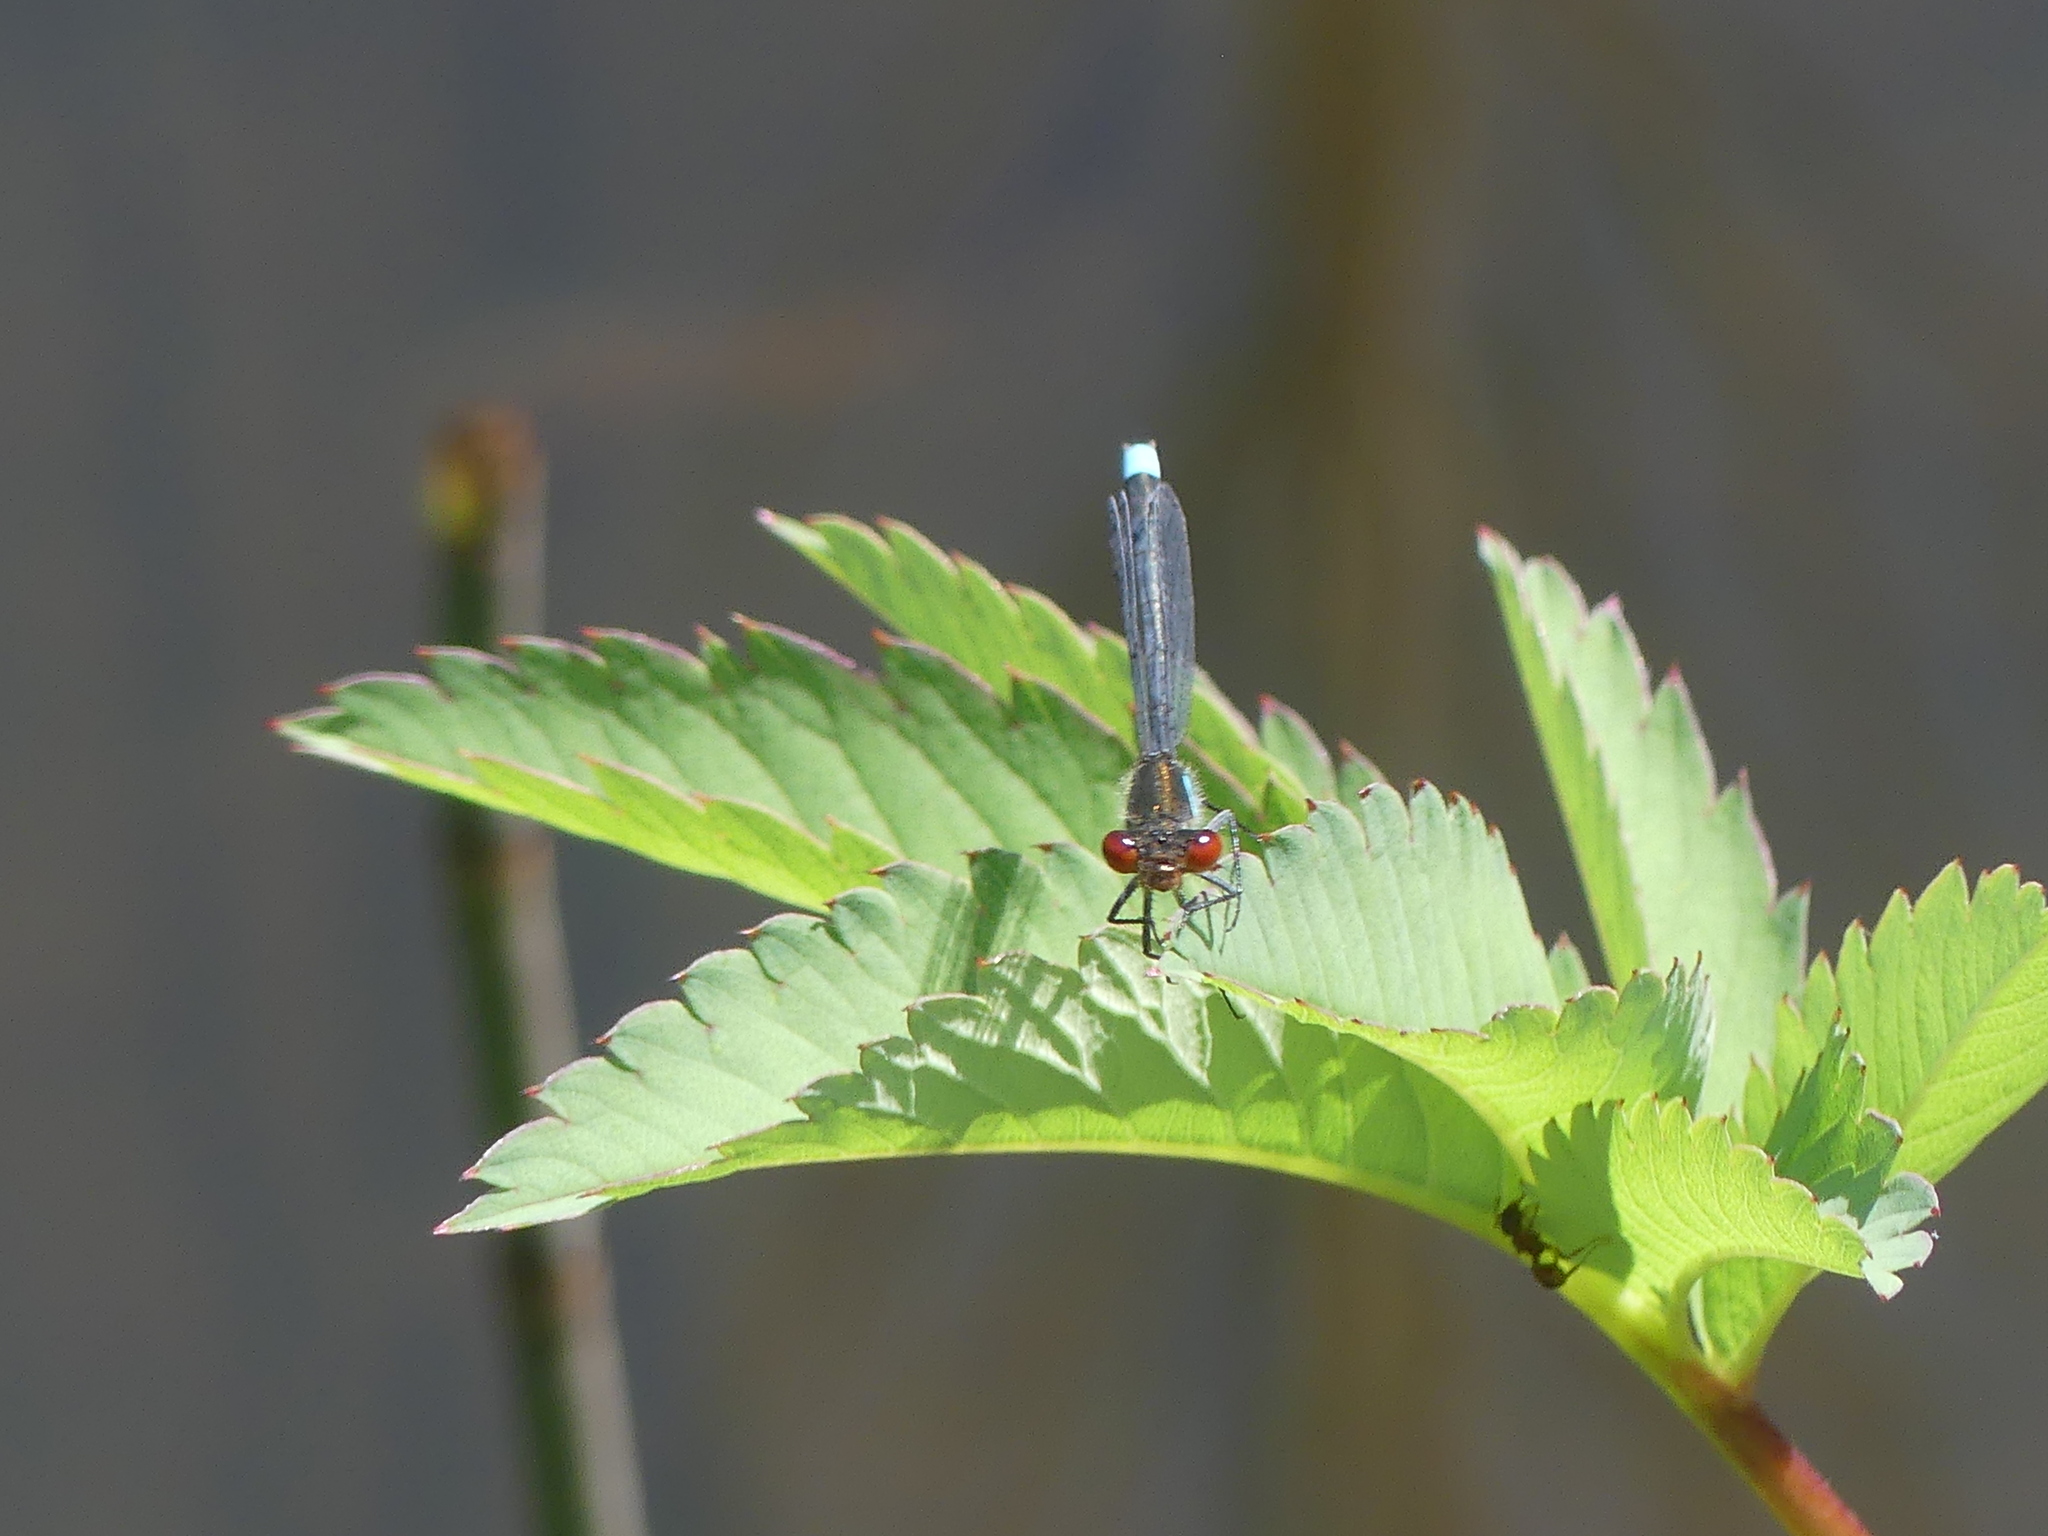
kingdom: Animalia
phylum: Arthropoda
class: Insecta
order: Odonata
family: Coenagrionidae
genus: Erythromma
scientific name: Erythromma najas
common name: Red-eyed damselfly
